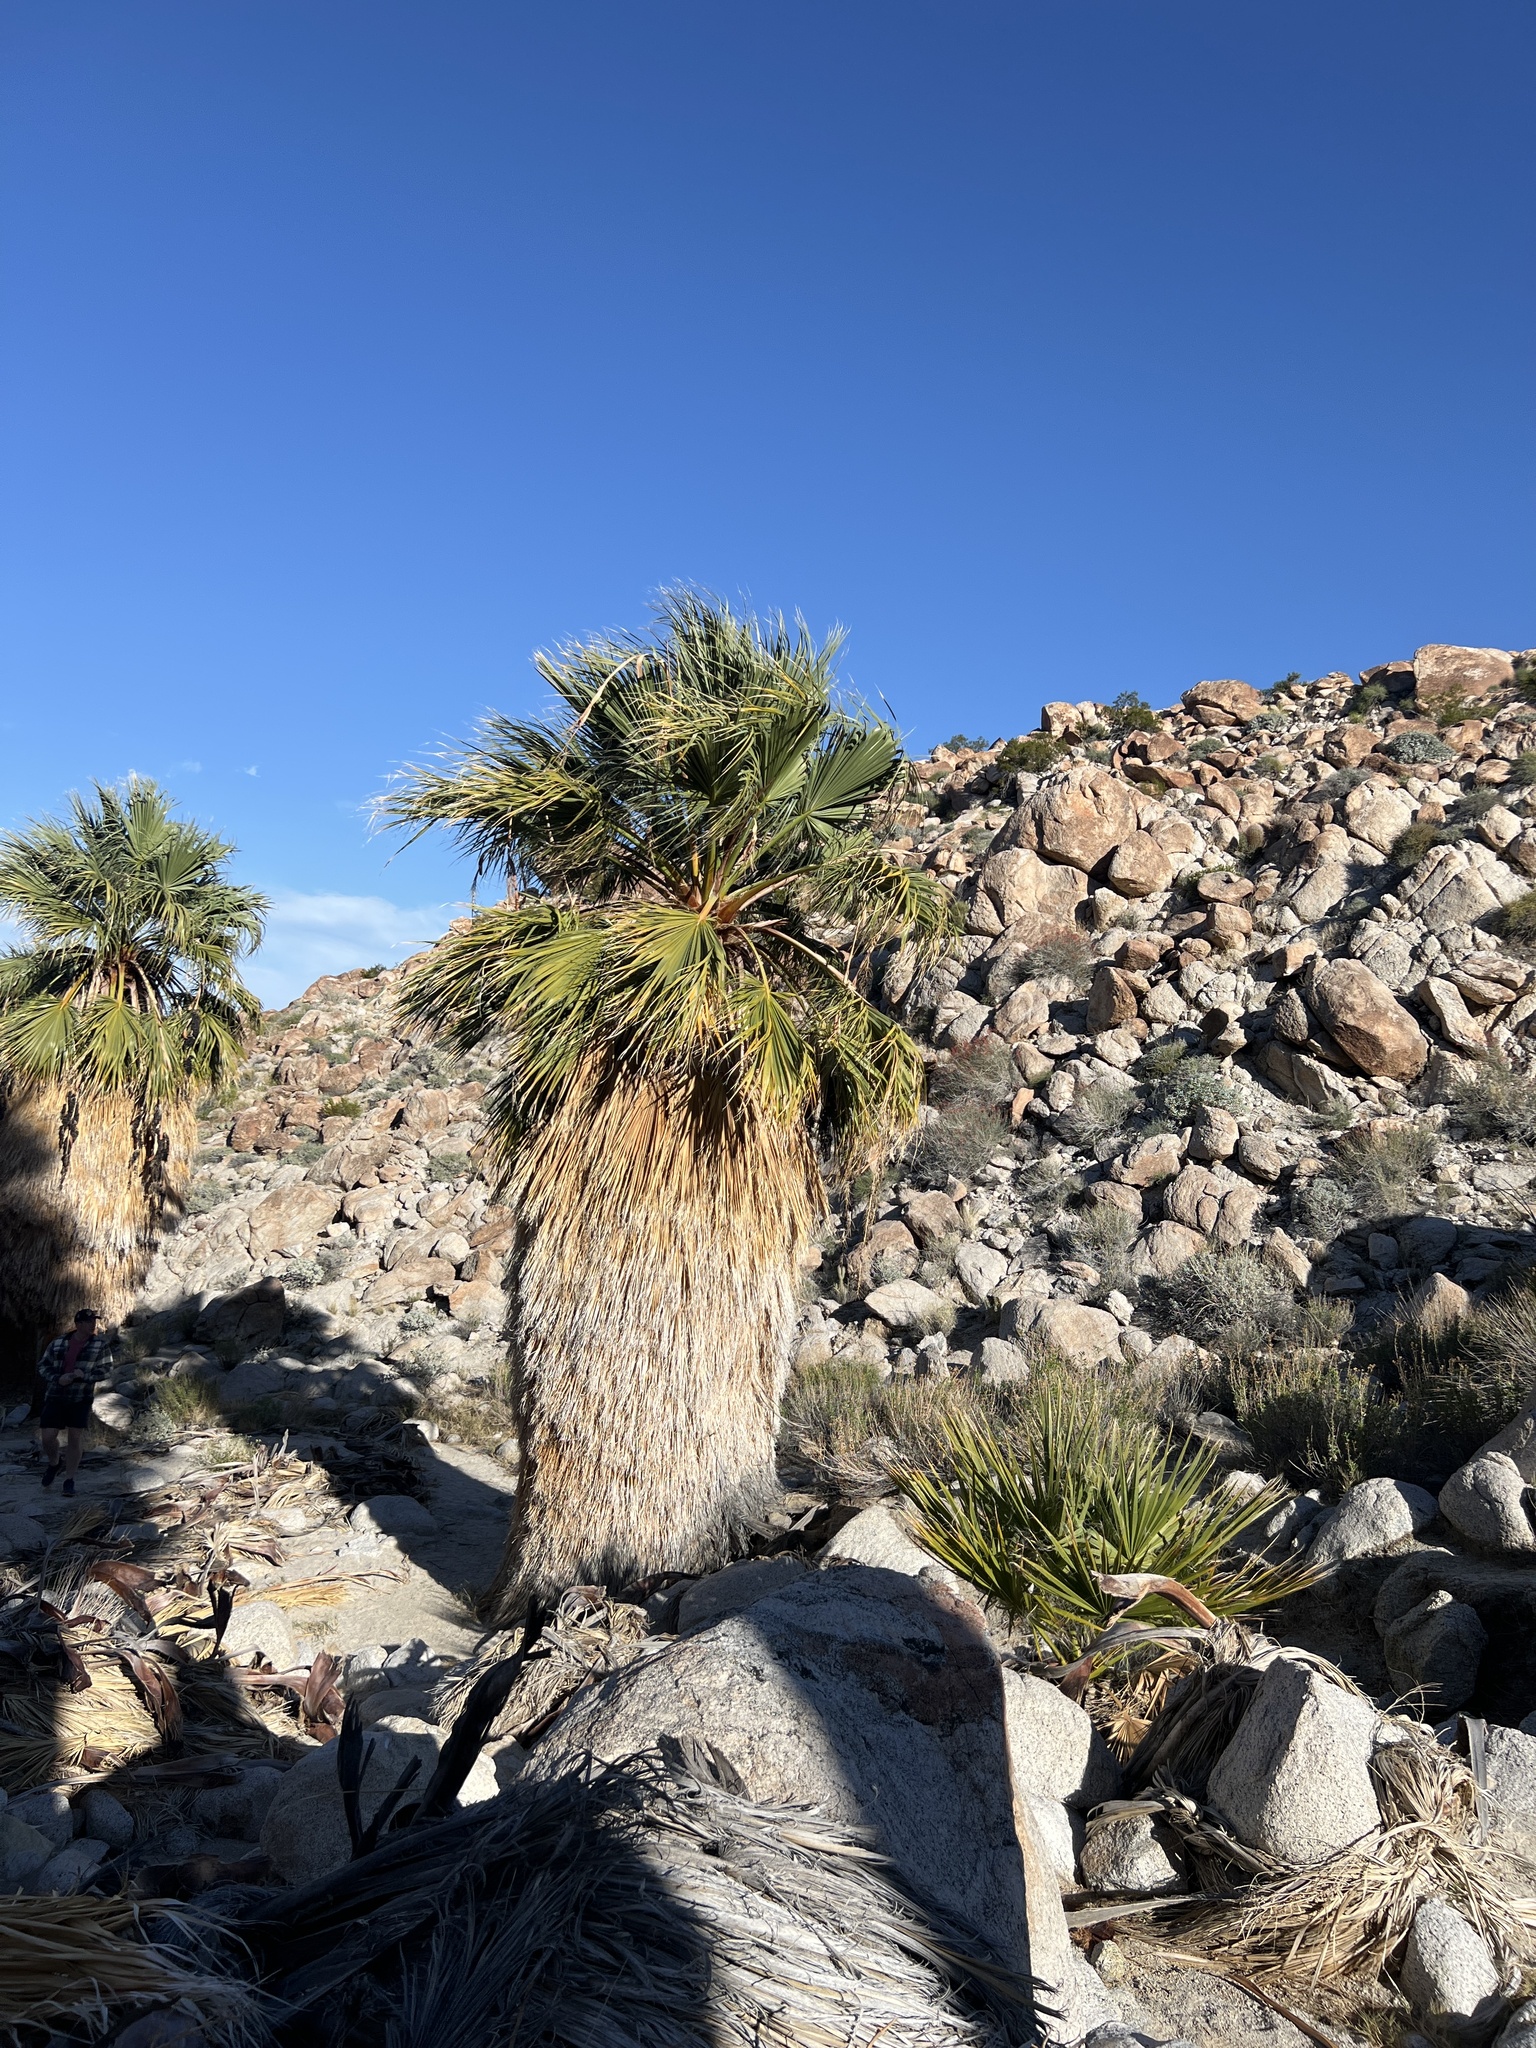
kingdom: Plantae
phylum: Tracheophyta
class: Liliopsida
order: Arecales
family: Arecaceae
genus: Washingtonia
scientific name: Washingtonia filifera
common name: California fan palm
